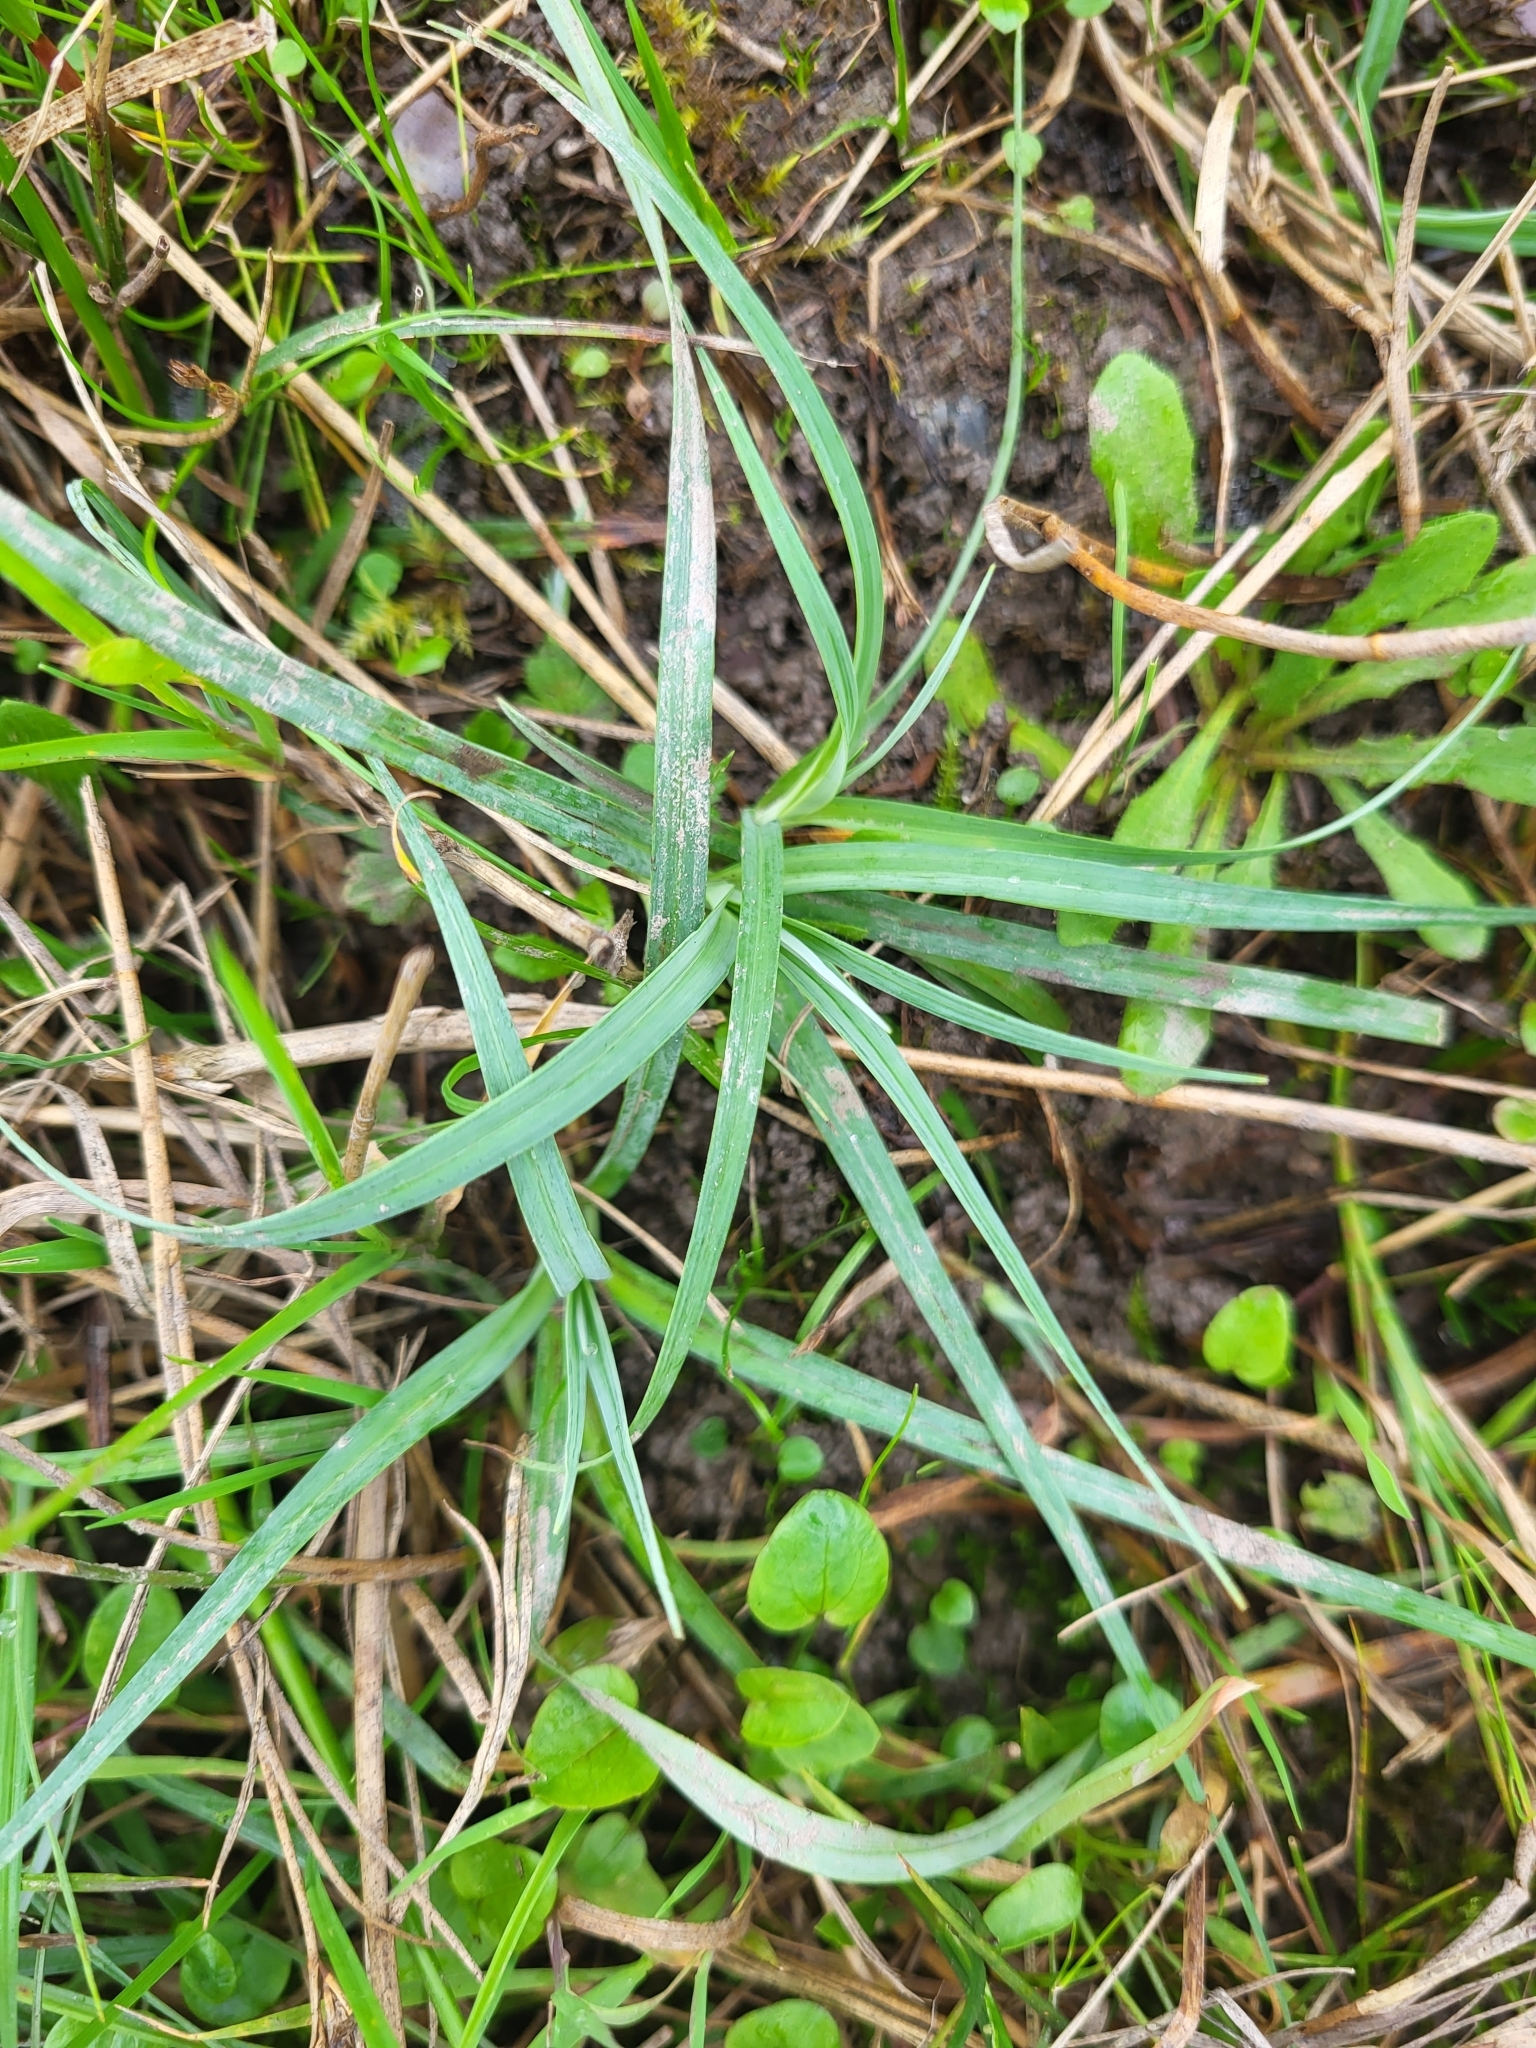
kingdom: Plantae
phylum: Tracheophyta
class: Liliopsida
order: Poales
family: Cyperaceae
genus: Carex
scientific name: Carex flacca
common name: Glaucous sedge
